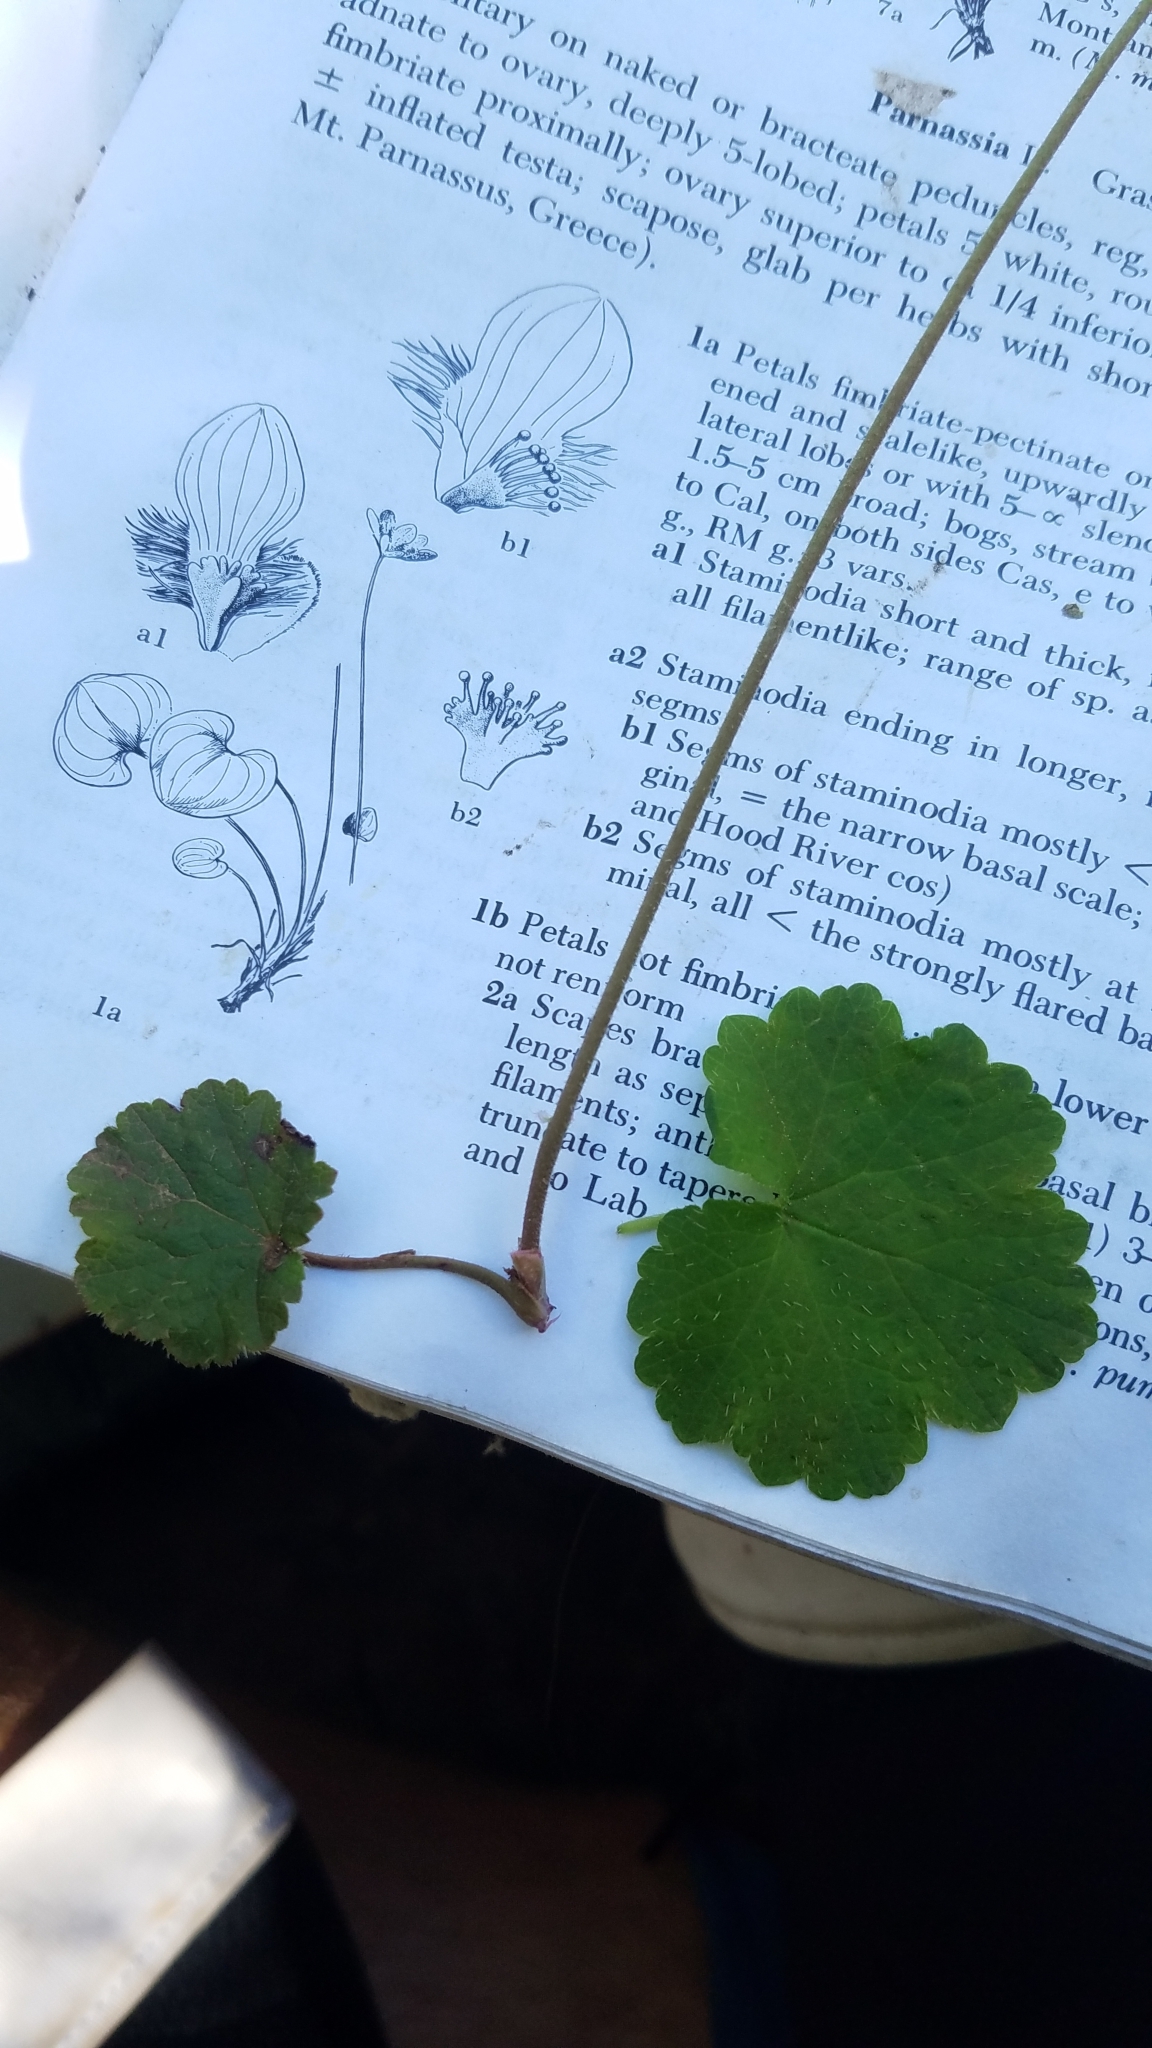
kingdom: Plantae
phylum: Tracheophyta
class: Magnoliopsida
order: Saxifragales
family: Saxifragaceae
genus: Ozomelis
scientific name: Ozomelis stauropetala
